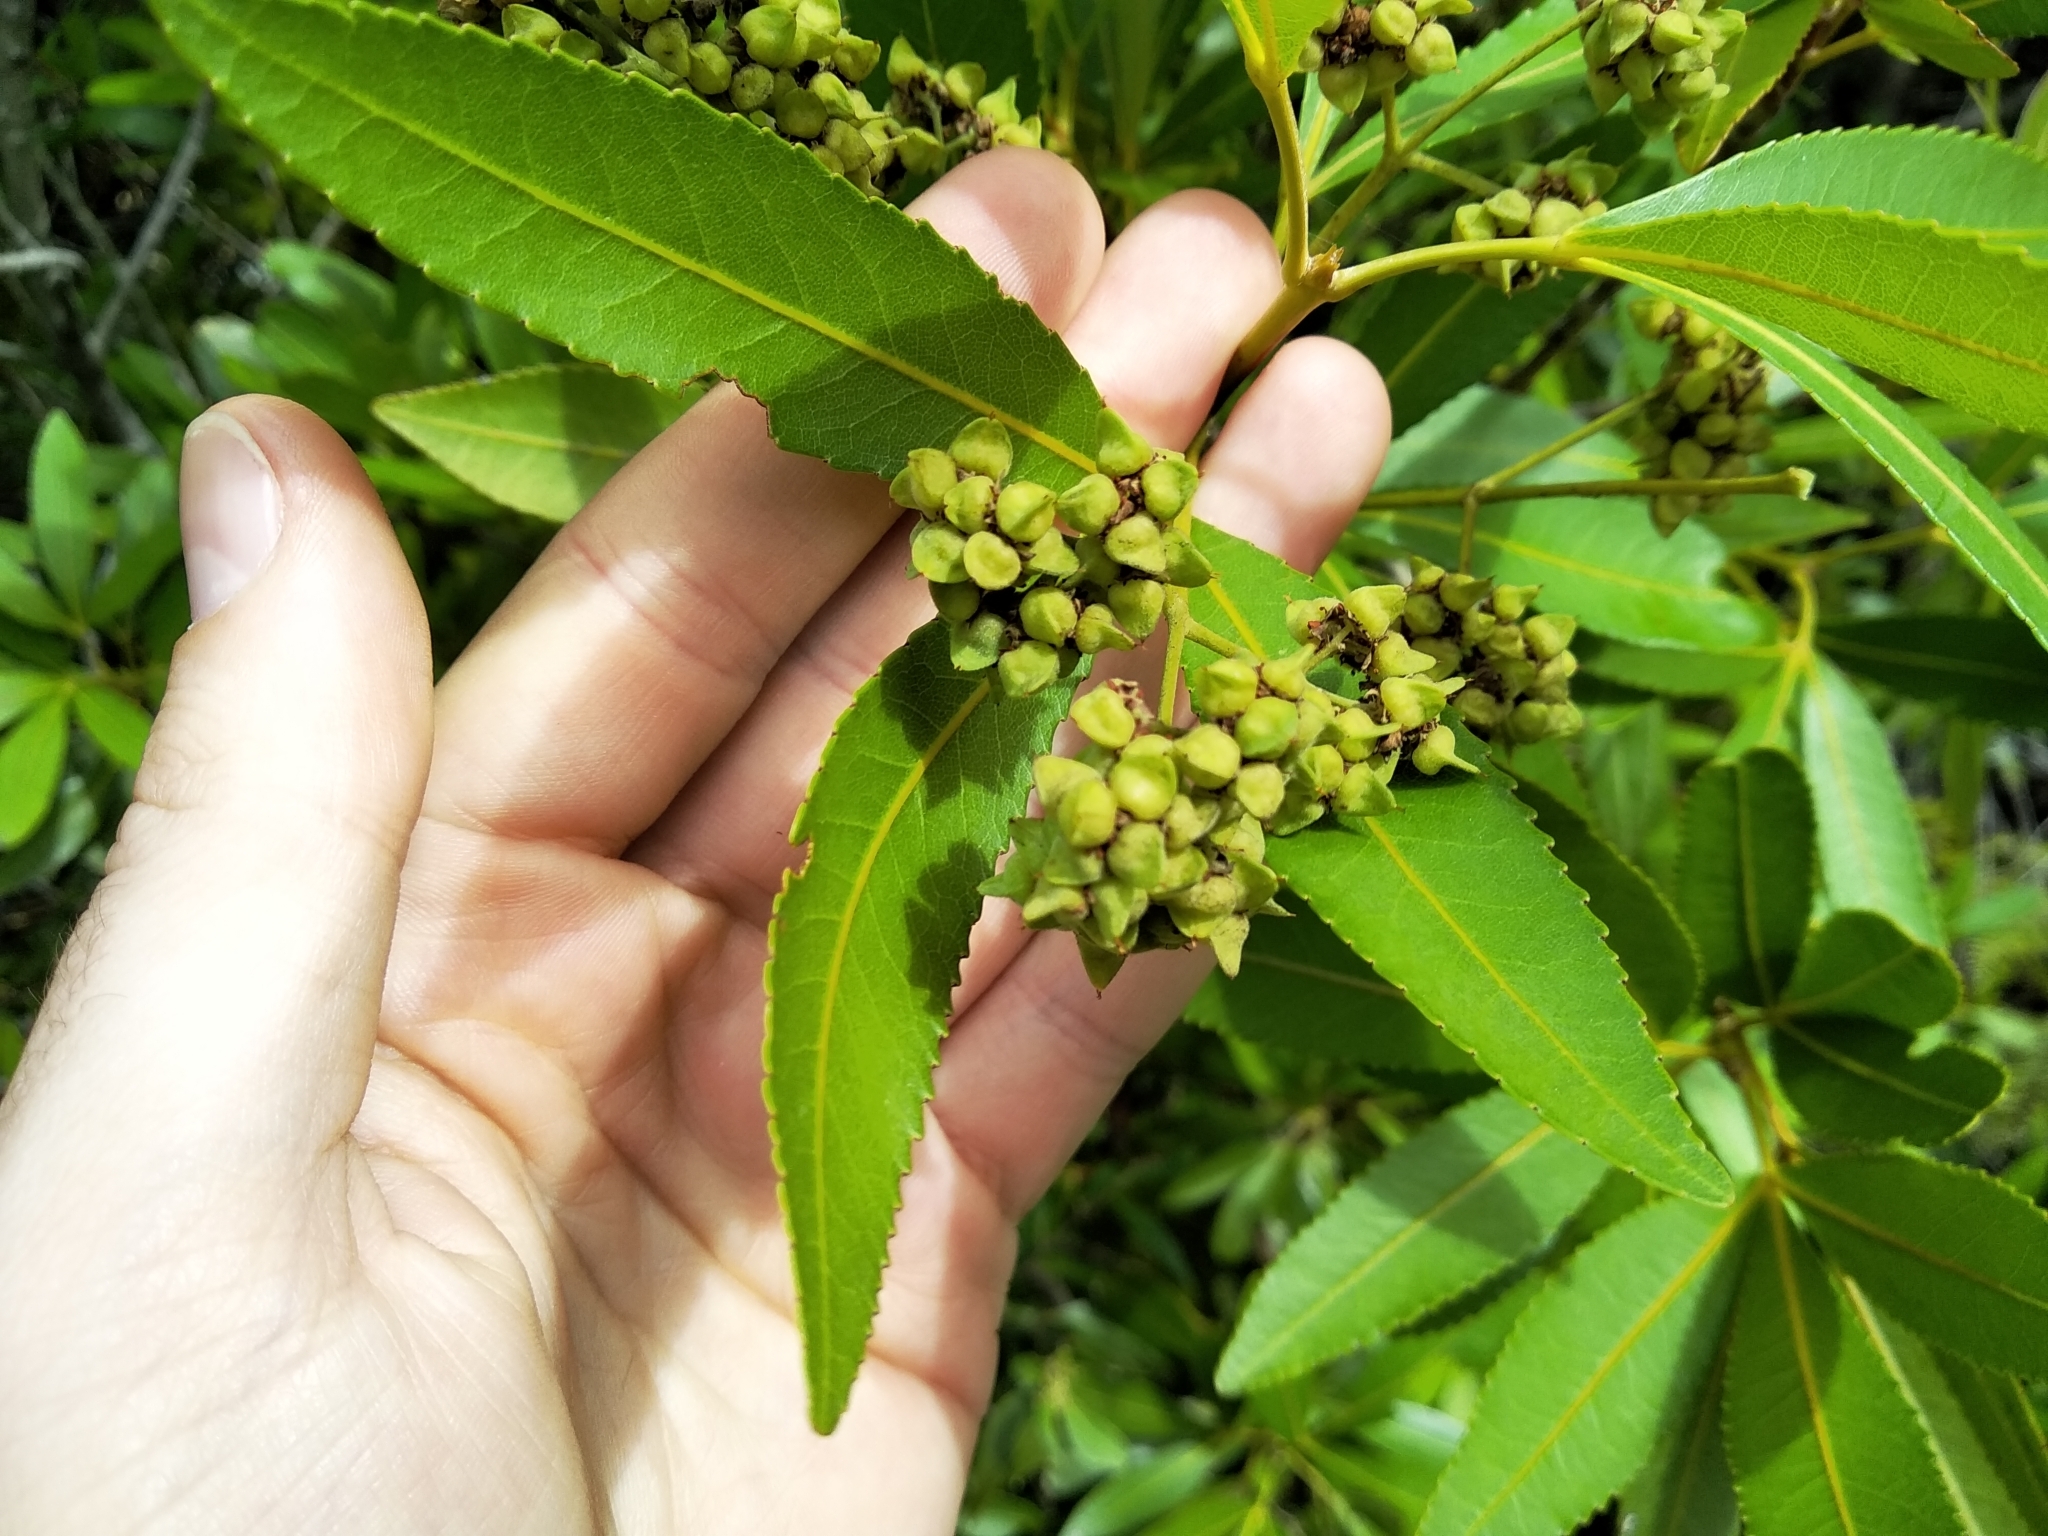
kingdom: Plantae
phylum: Tracheophyta
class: Magnoliopsida
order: Oxalidales
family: Cunoniaceae
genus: Platylophus
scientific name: Platylophus trifoliatus
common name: White alder
